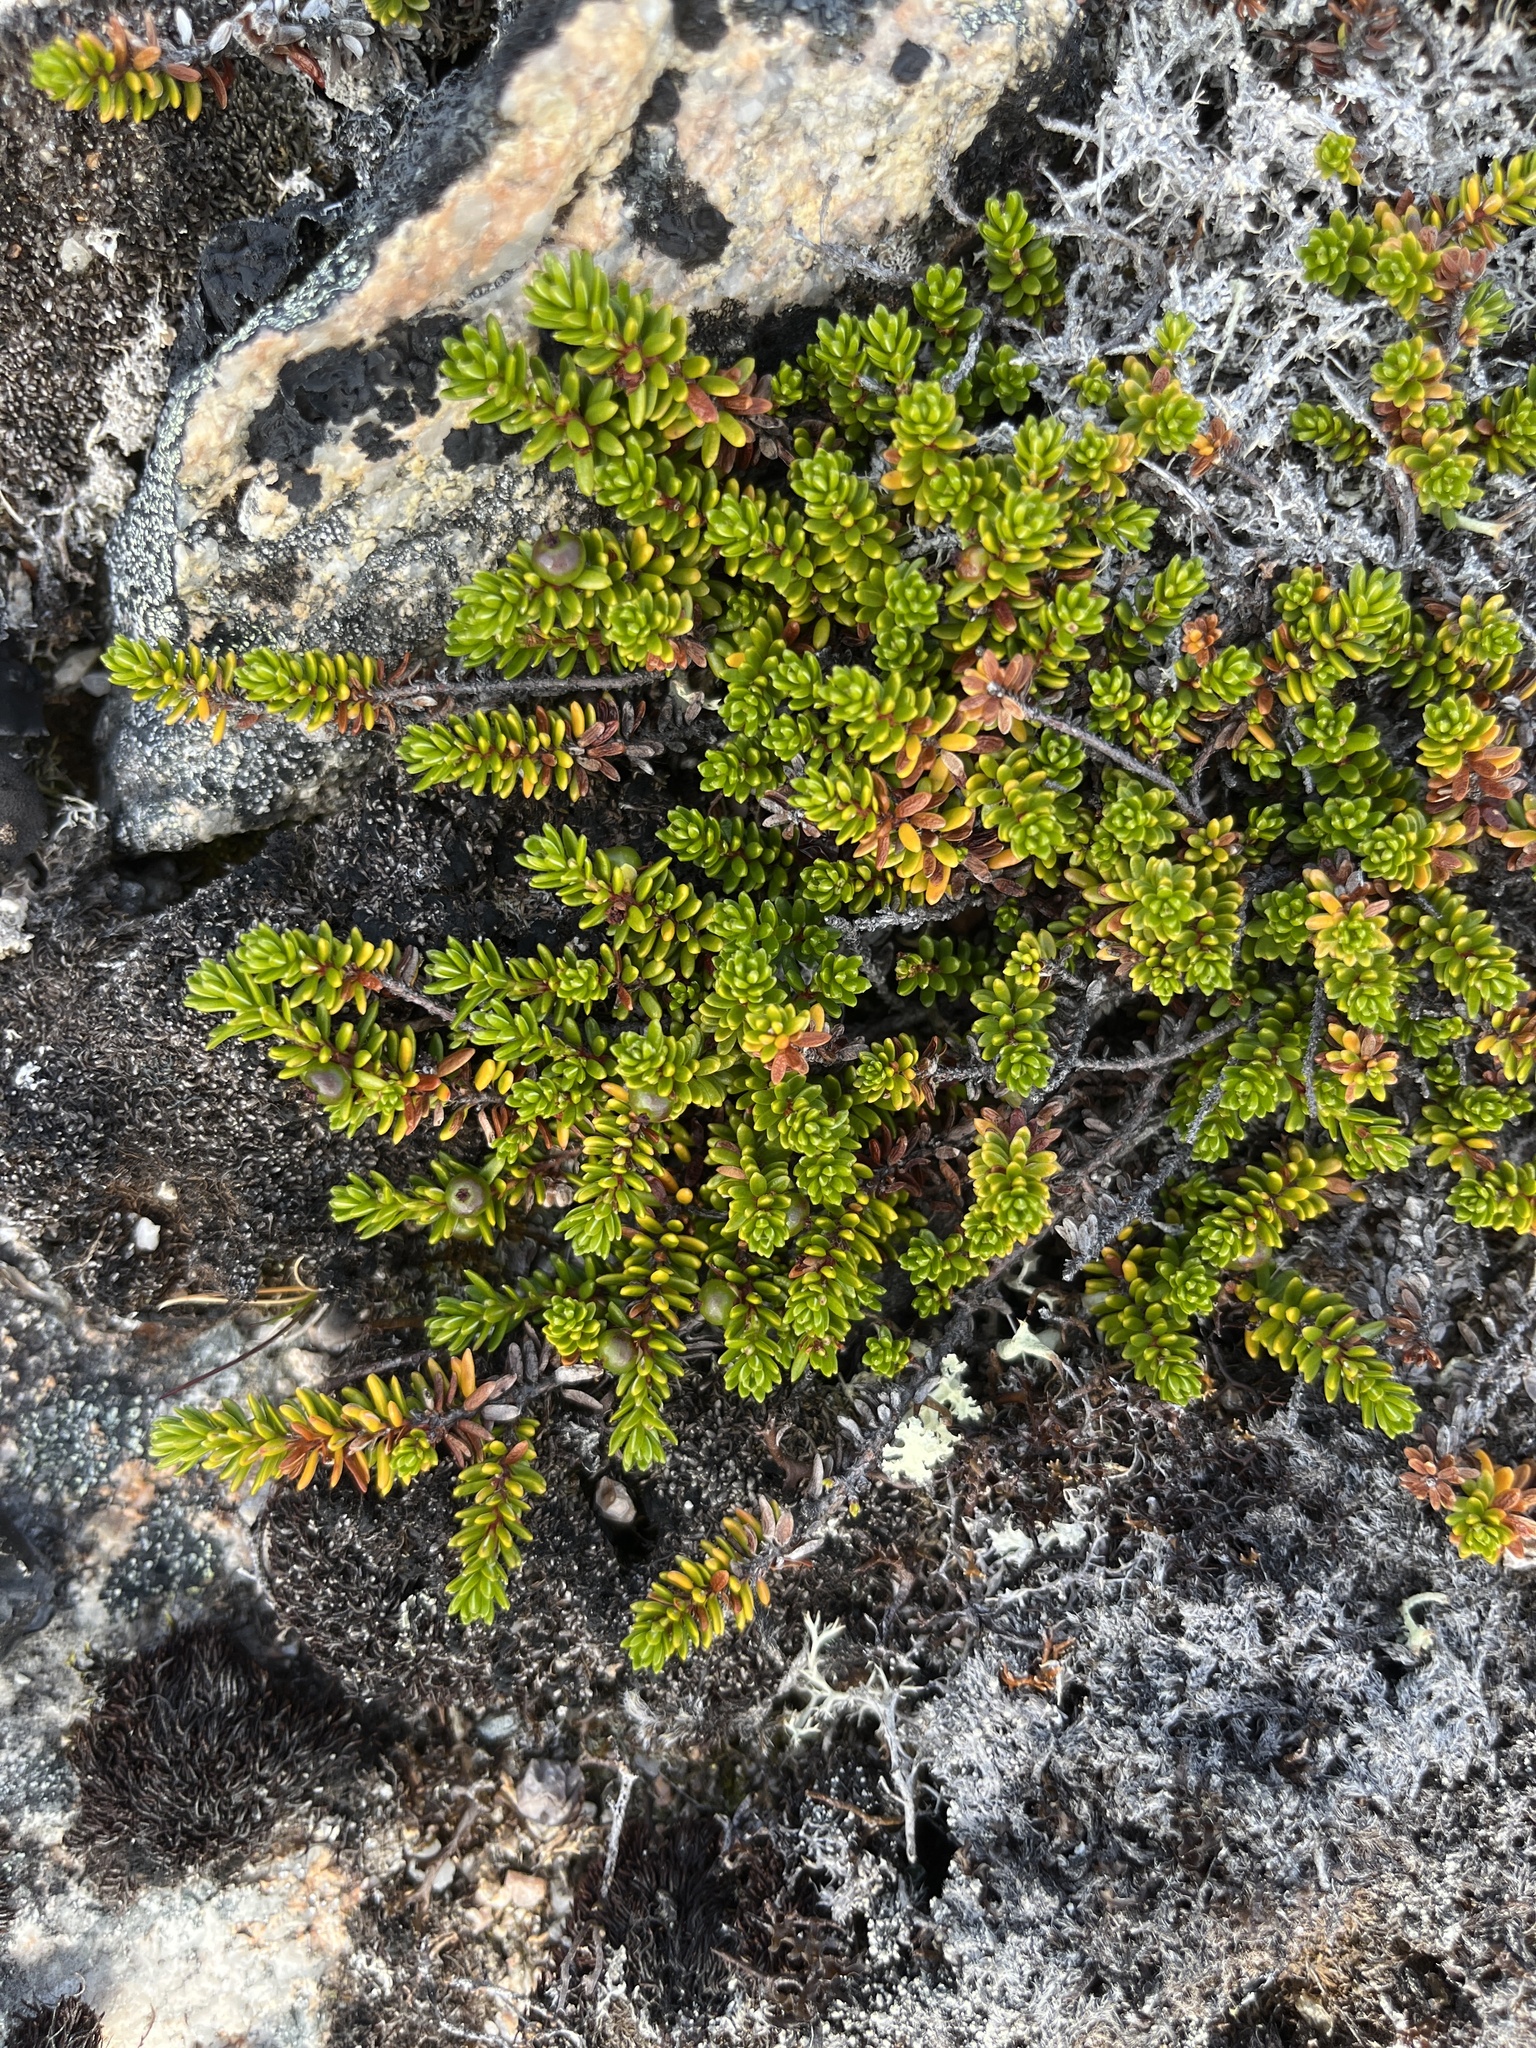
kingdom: Plantae
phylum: Tracheophyta
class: Magnoliopsida
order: Ericales
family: Ericaceae
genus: Empetrum
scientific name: Empetrum hermaphroditum
